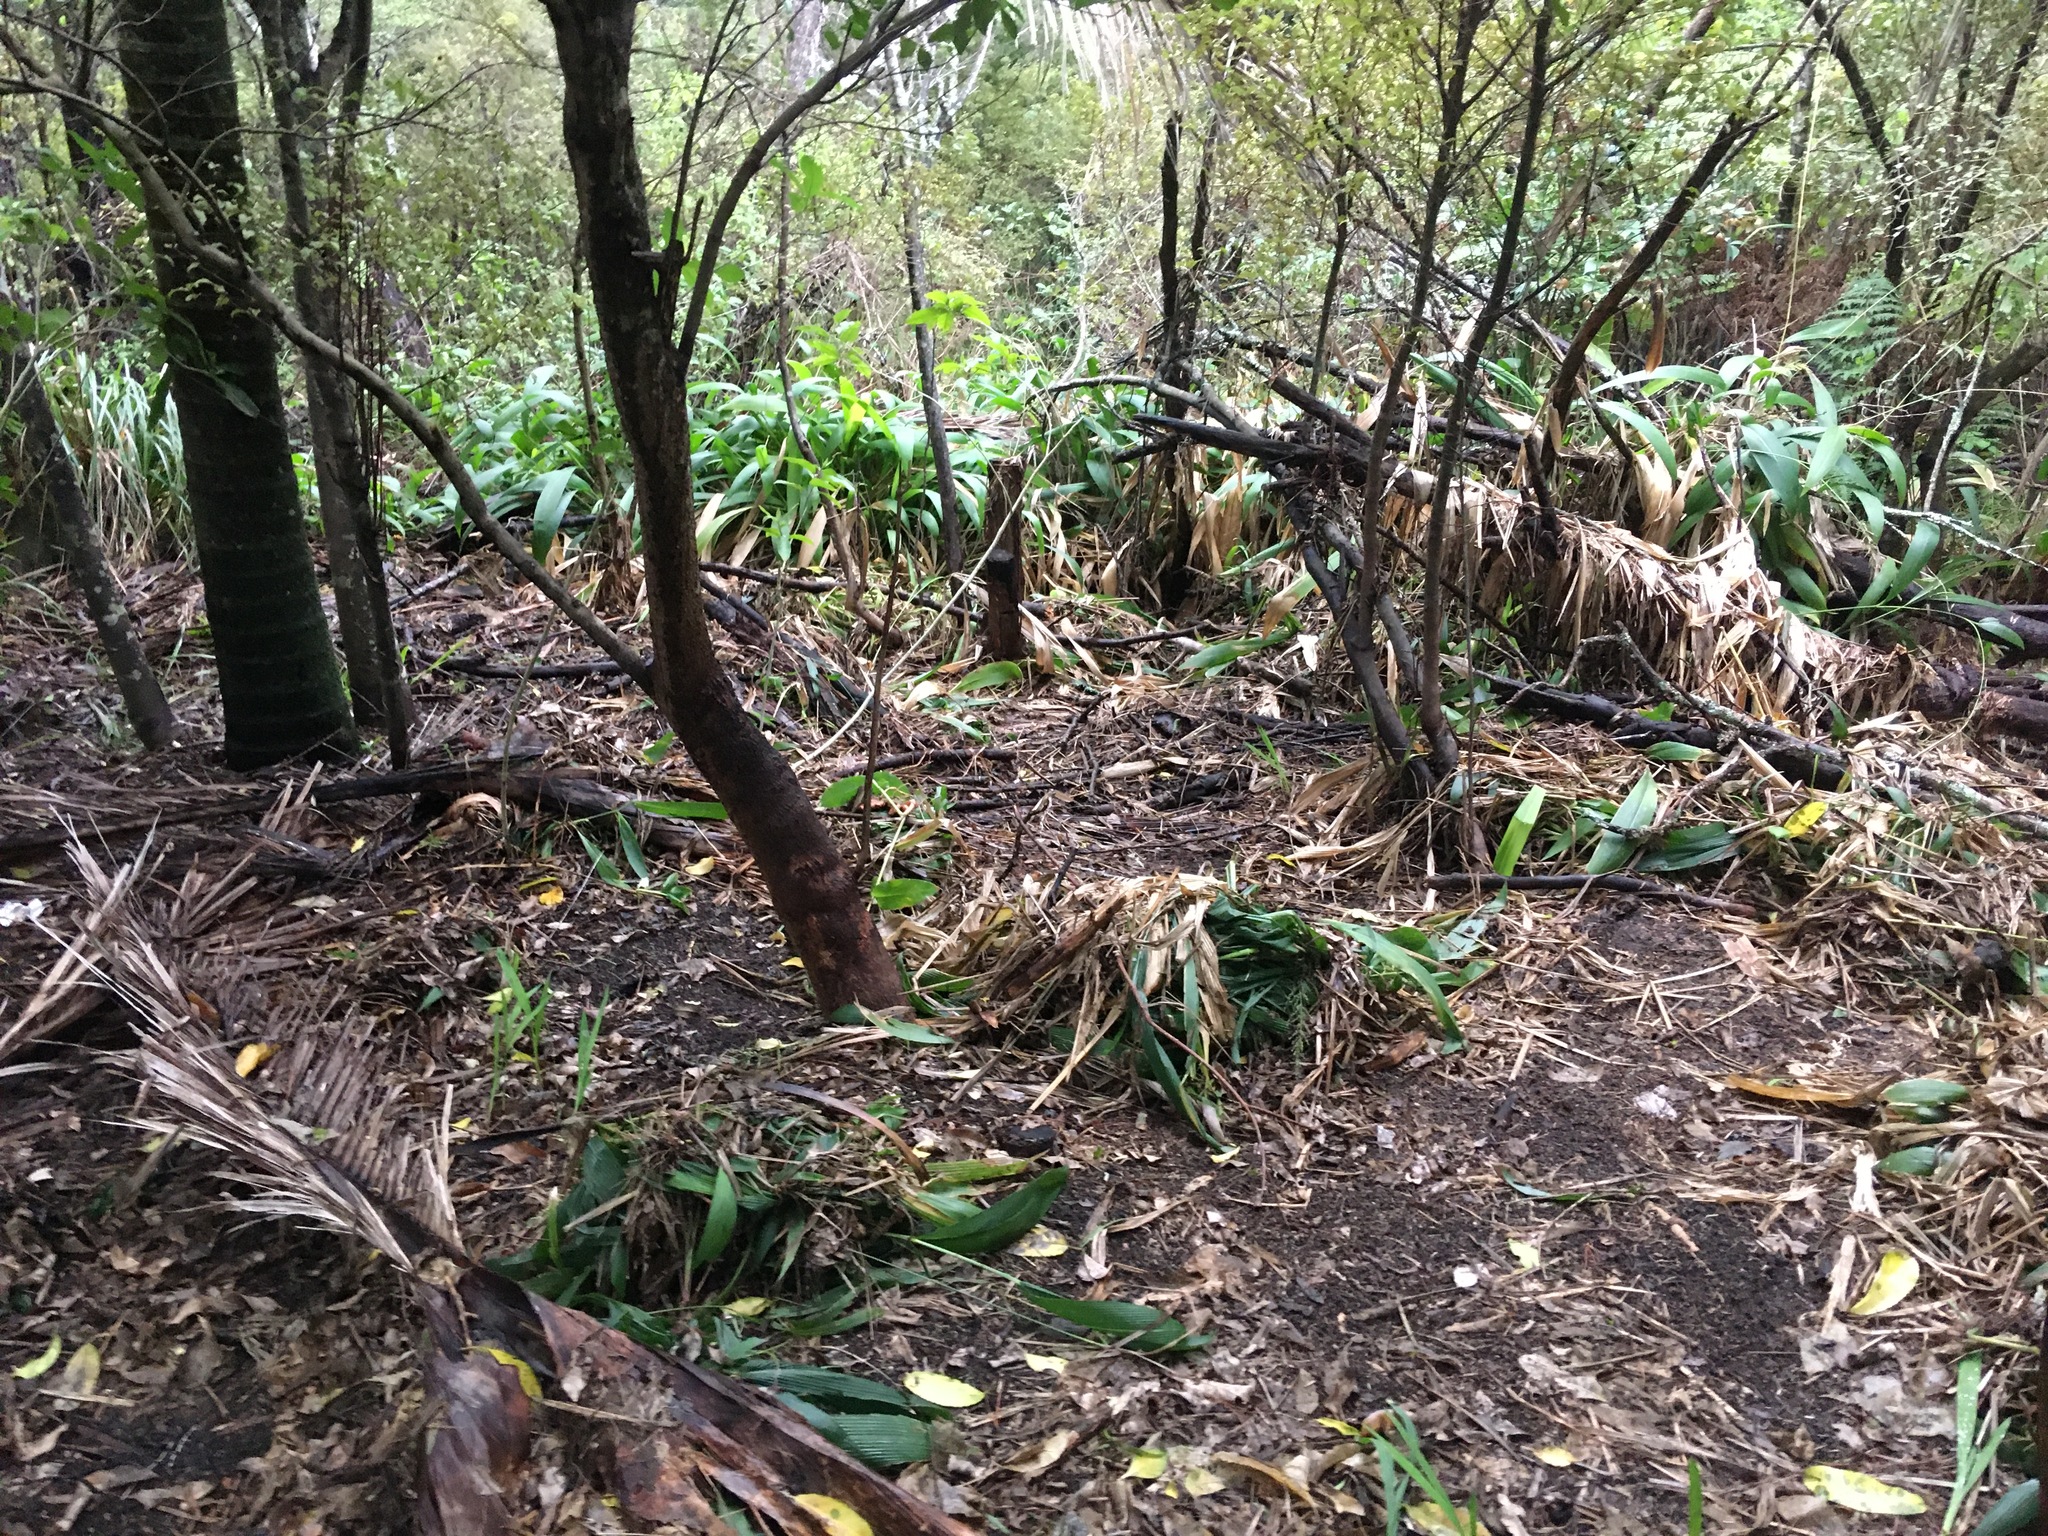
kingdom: Plantae
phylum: Tracheophyta
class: Liliopsida
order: Arecales
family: Arecaceae
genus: Rhopalostylis
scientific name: Rhopalostylis sapida
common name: Feather-duster palm
